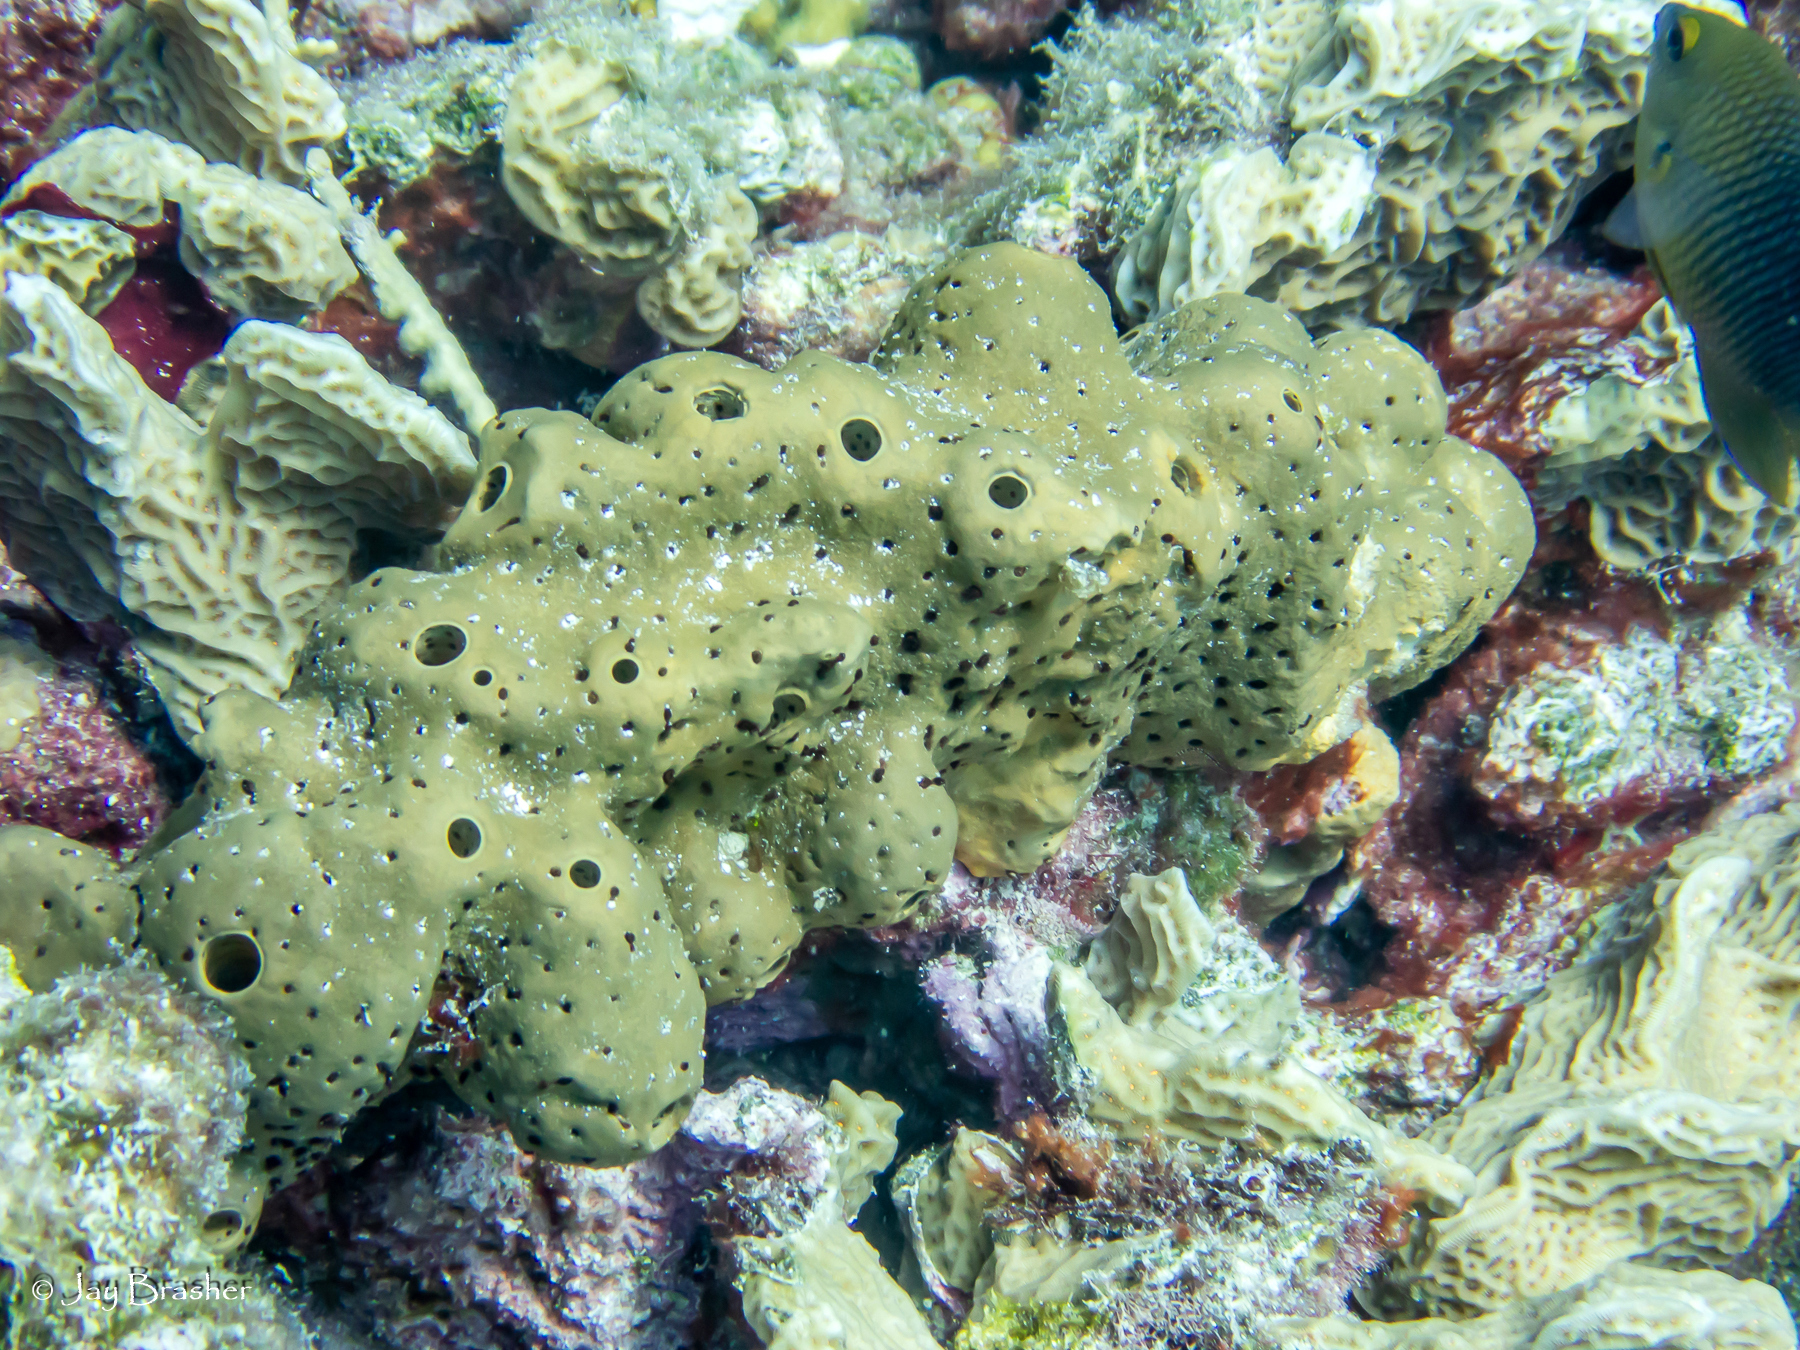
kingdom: Animalia
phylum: Porifera
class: Demospongiae
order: Agelasida
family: Agelasidae
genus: Agelas
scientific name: Agelas conifera
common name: Brown tube sponge
